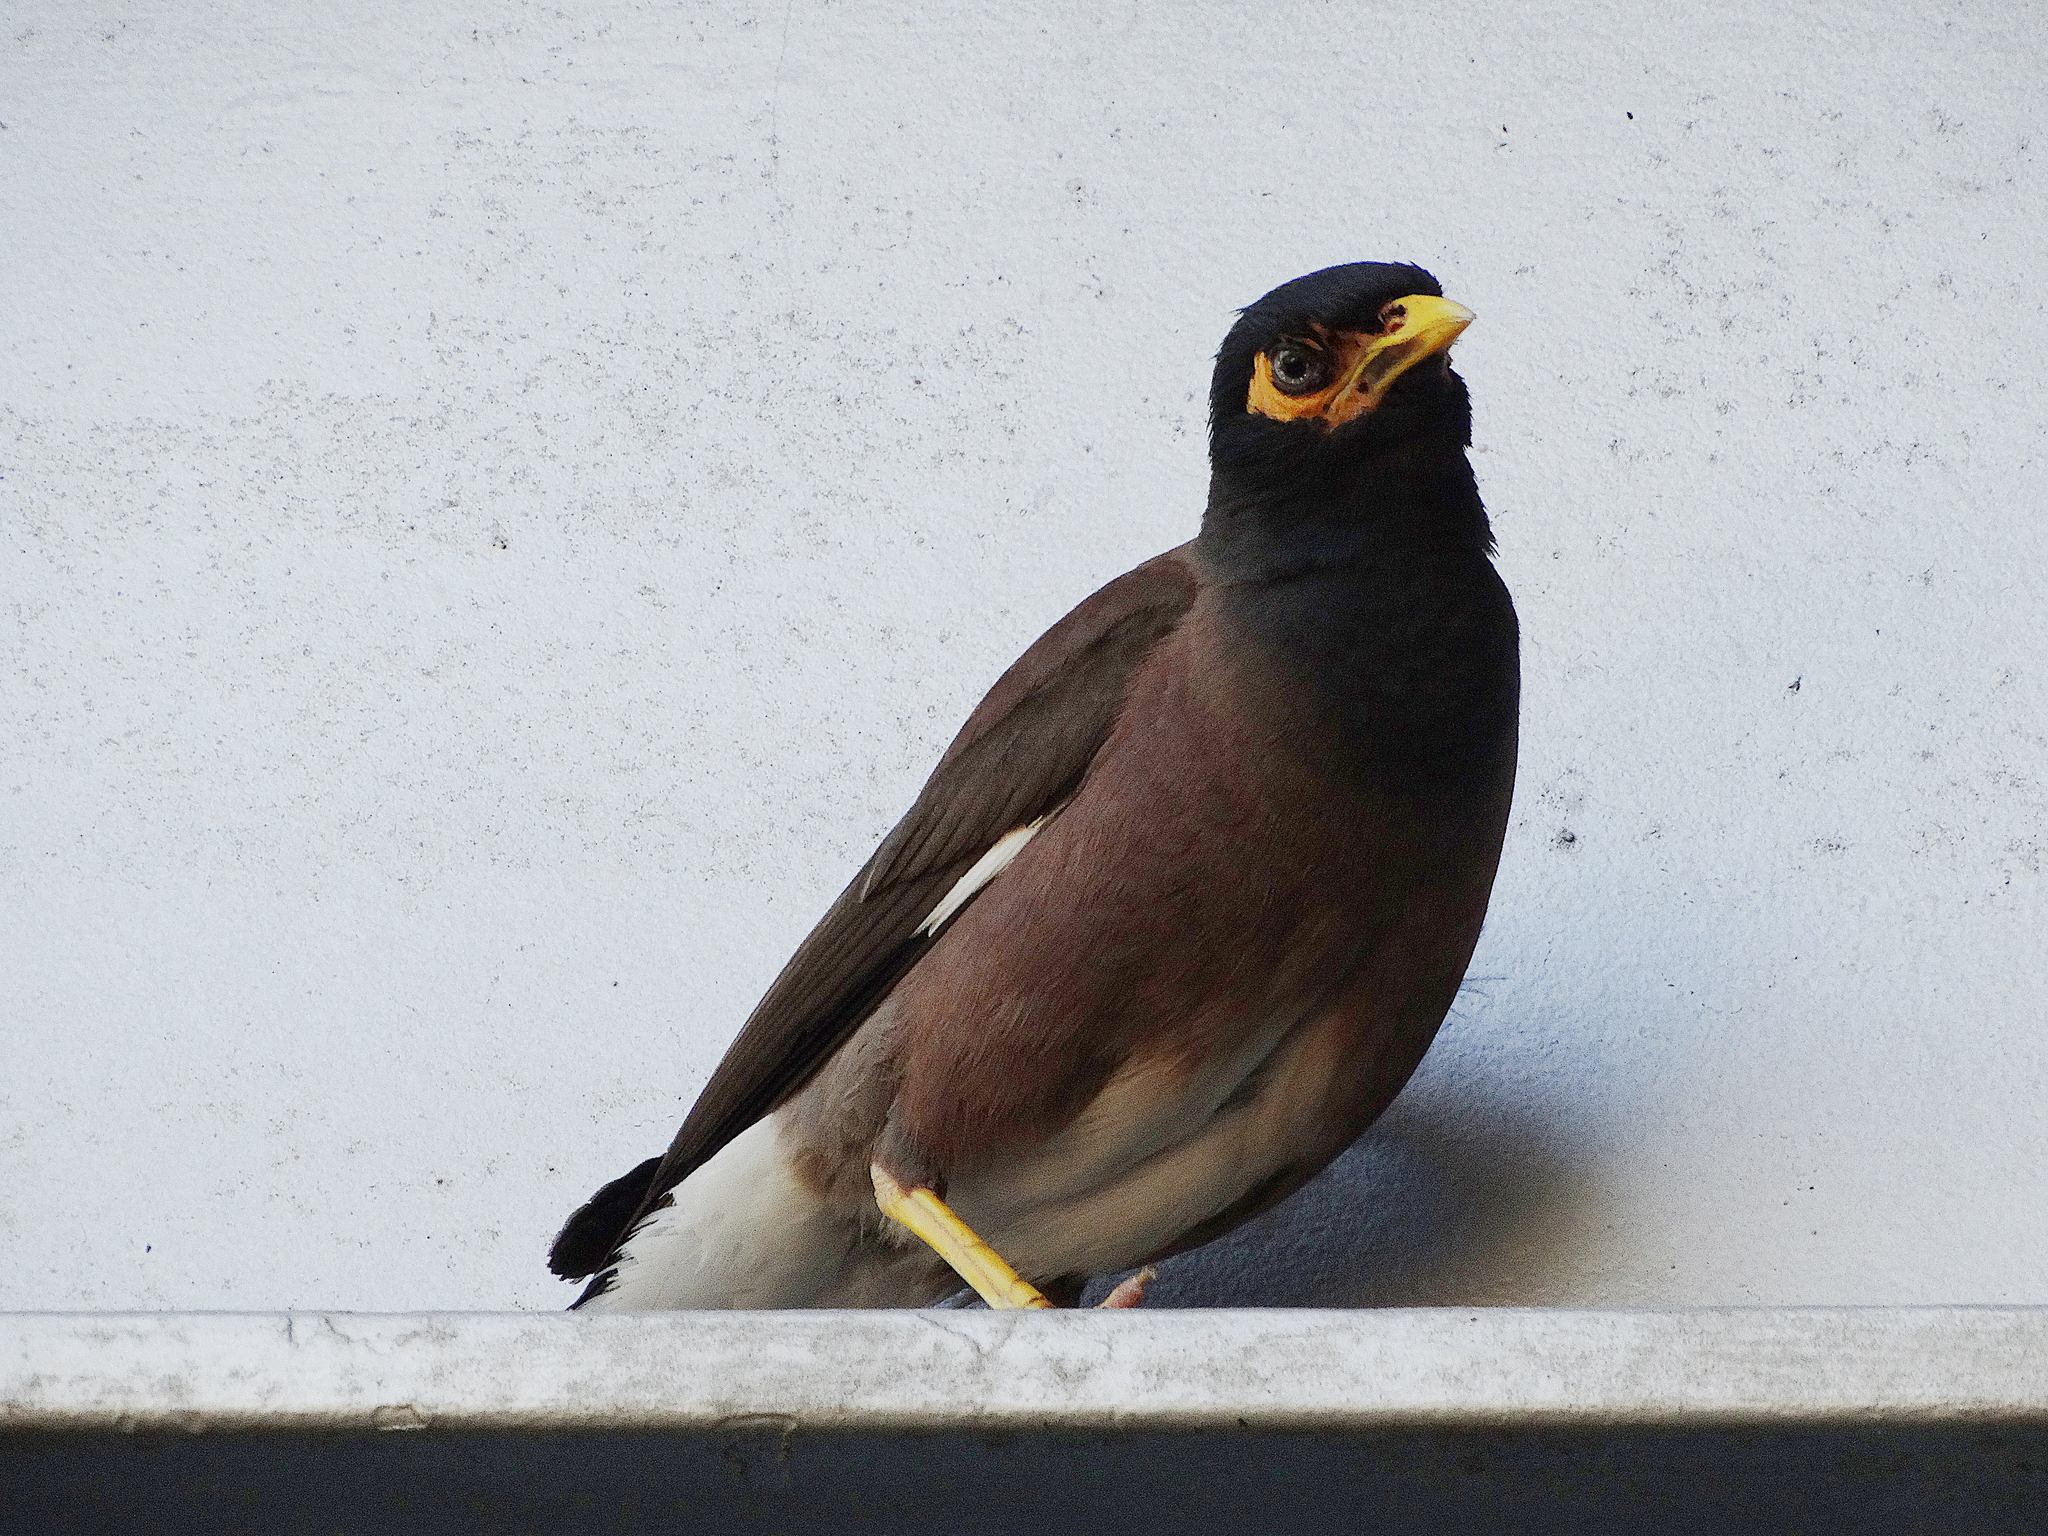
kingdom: Animalia
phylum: Chordata
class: Aves
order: Passeriformes
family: Sturnidae
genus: Acridotheres
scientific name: Acridotheres tristis
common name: Common myna
